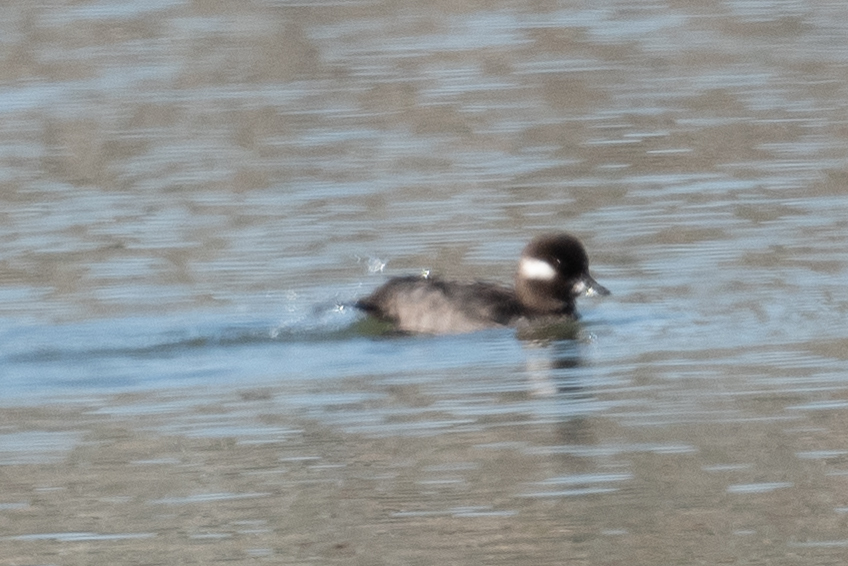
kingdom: Animalia
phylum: Chordata
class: Aves
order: Anseriformes
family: Anatidae
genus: Bucephala
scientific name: Bucephala albeola
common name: Bufflehead
